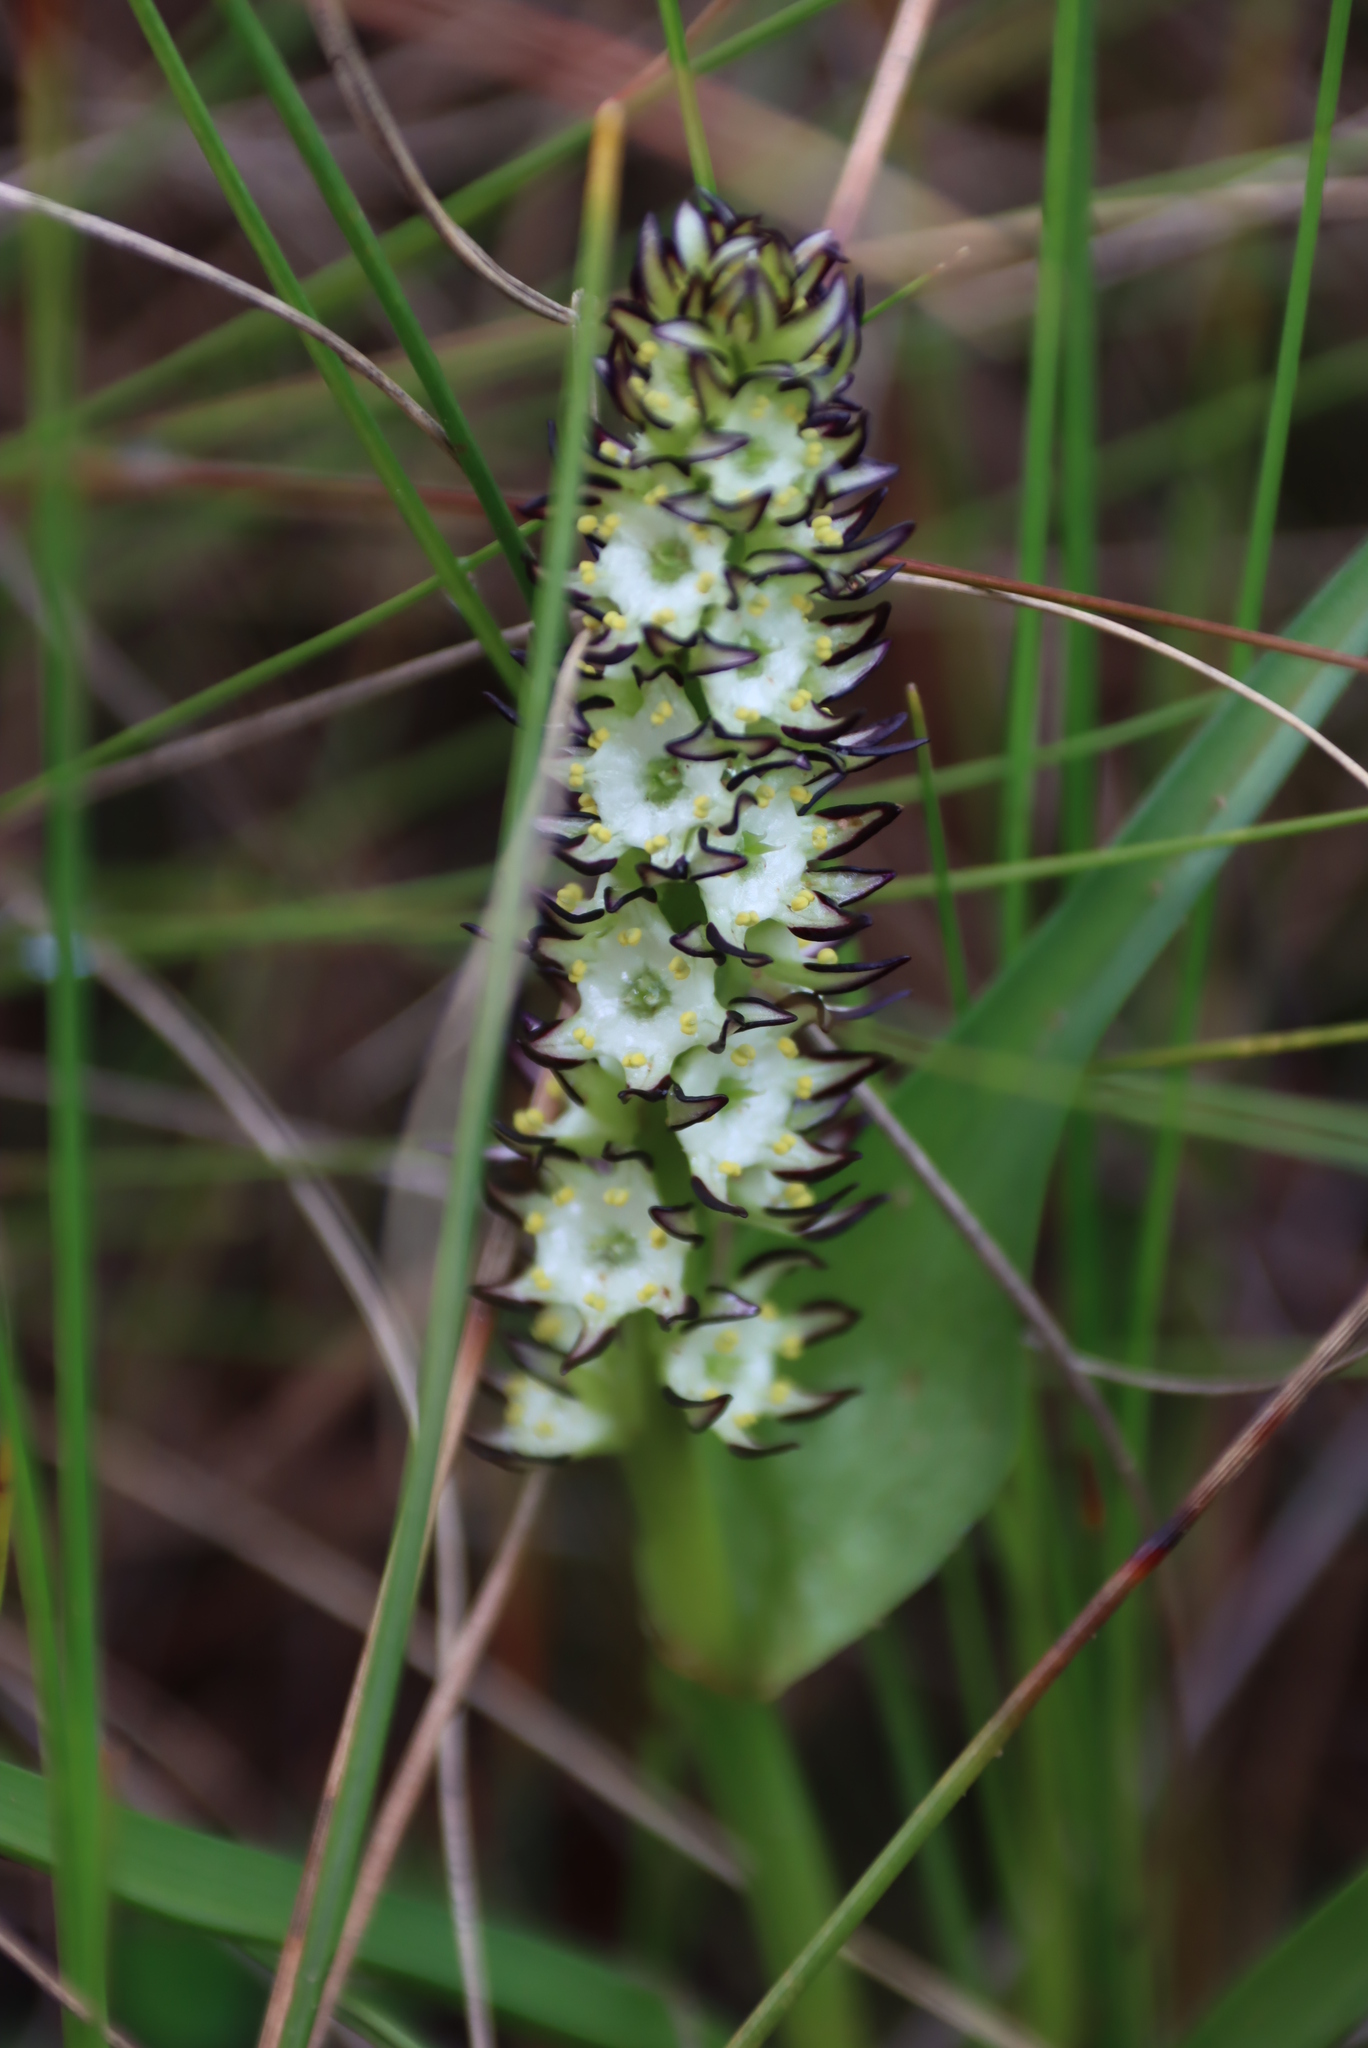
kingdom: Plantae
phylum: Tracheophyta
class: Liliopsida
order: Liliales
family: Colchicaceae
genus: Wurmbea
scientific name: Wurmbea spicata
